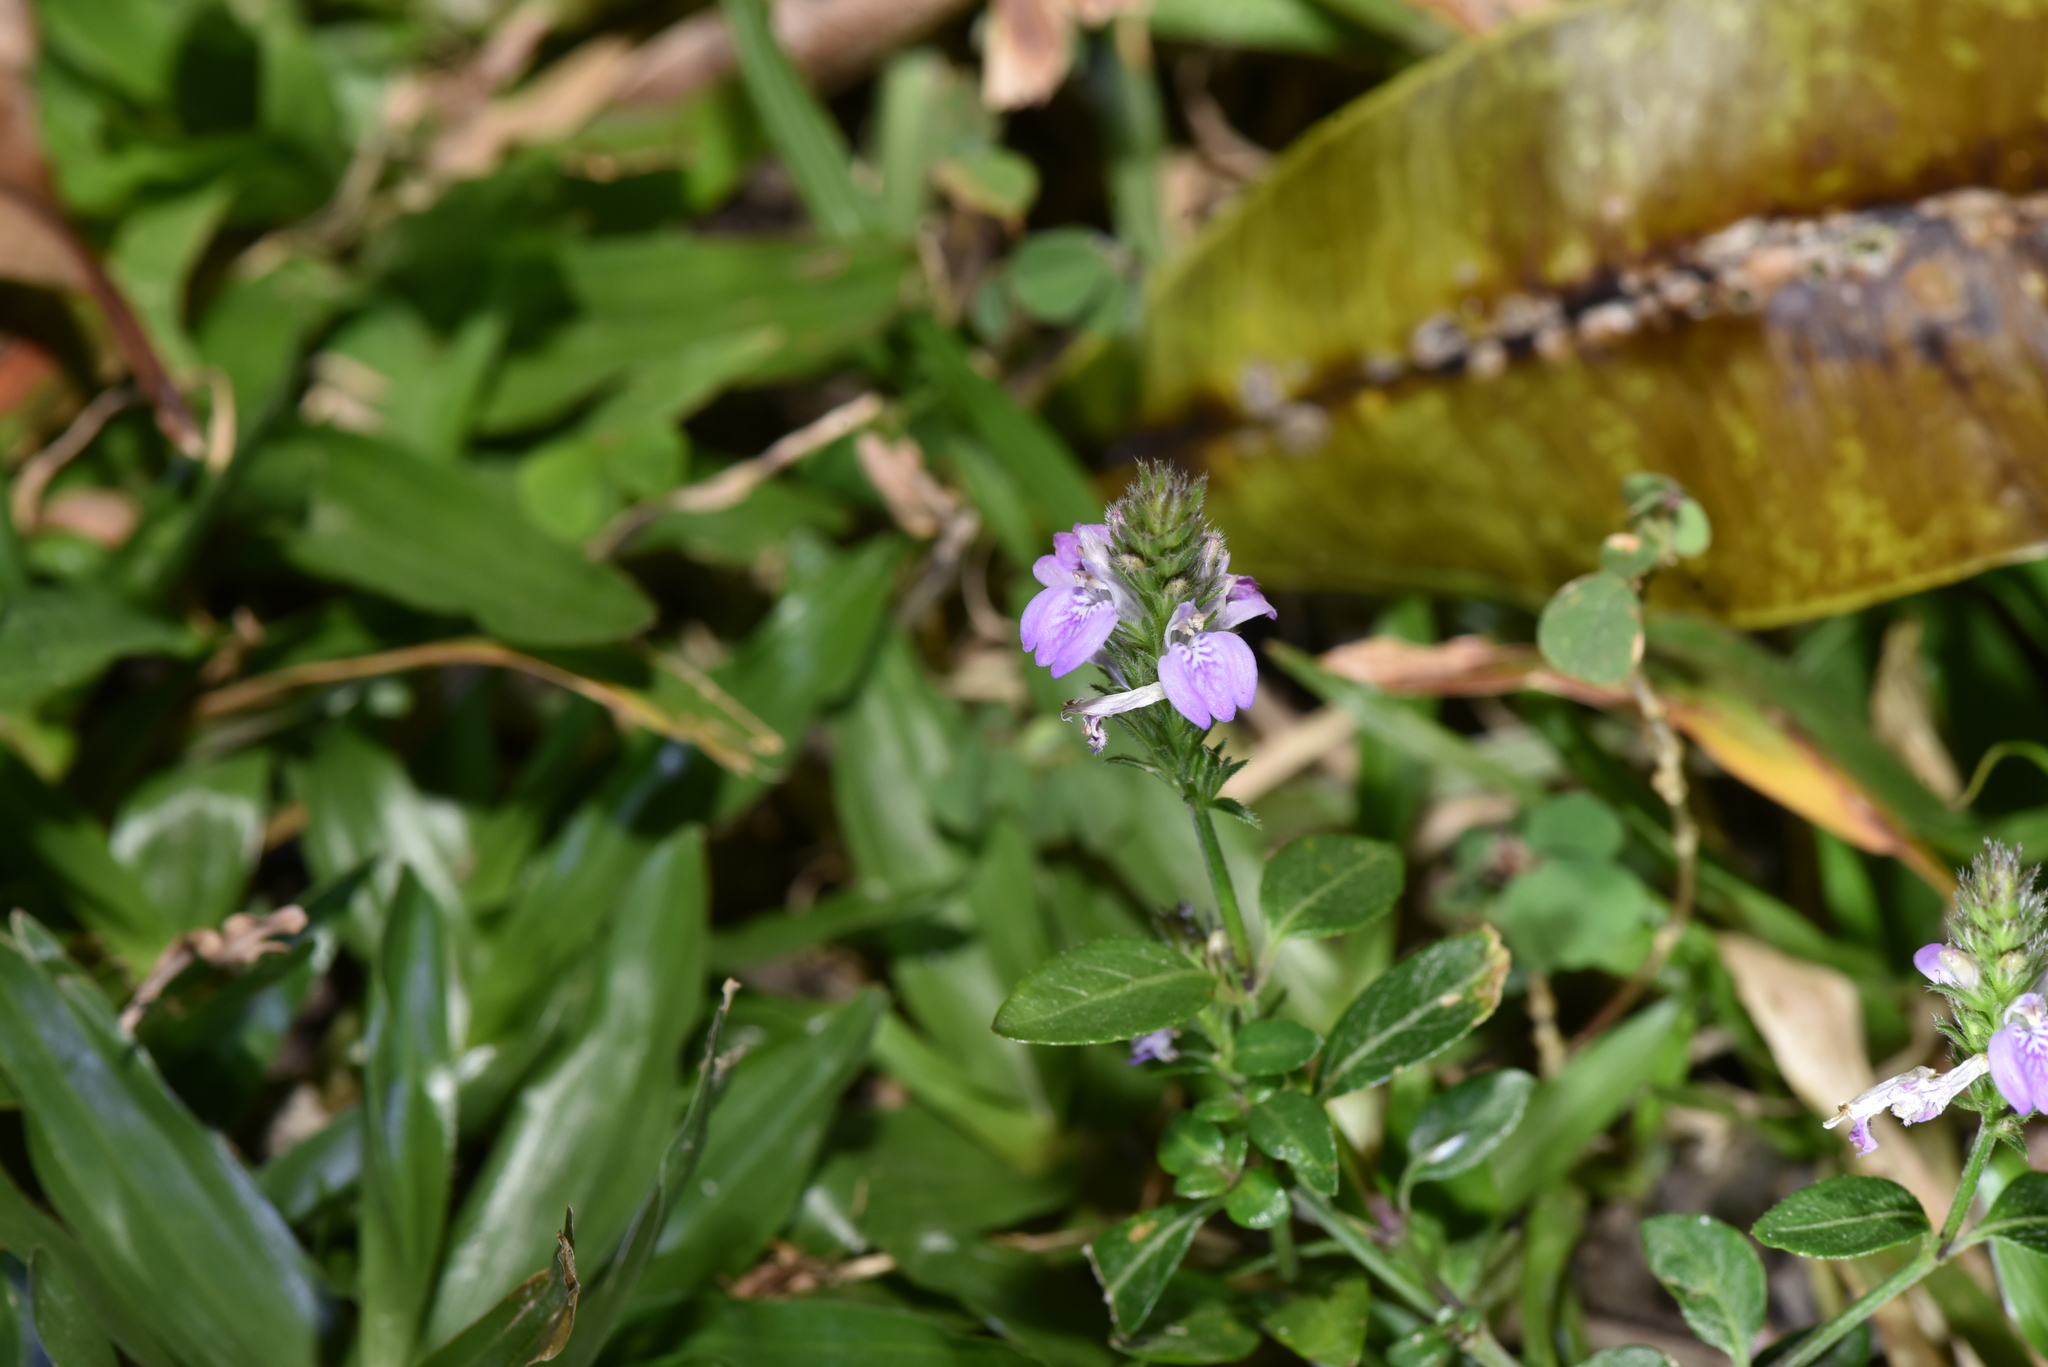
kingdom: Plantae
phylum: Tracheophyta
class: Magnoliopsida
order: Lamiales
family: Acanthaceae
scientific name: Acanthaceae
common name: Acanthaceae
